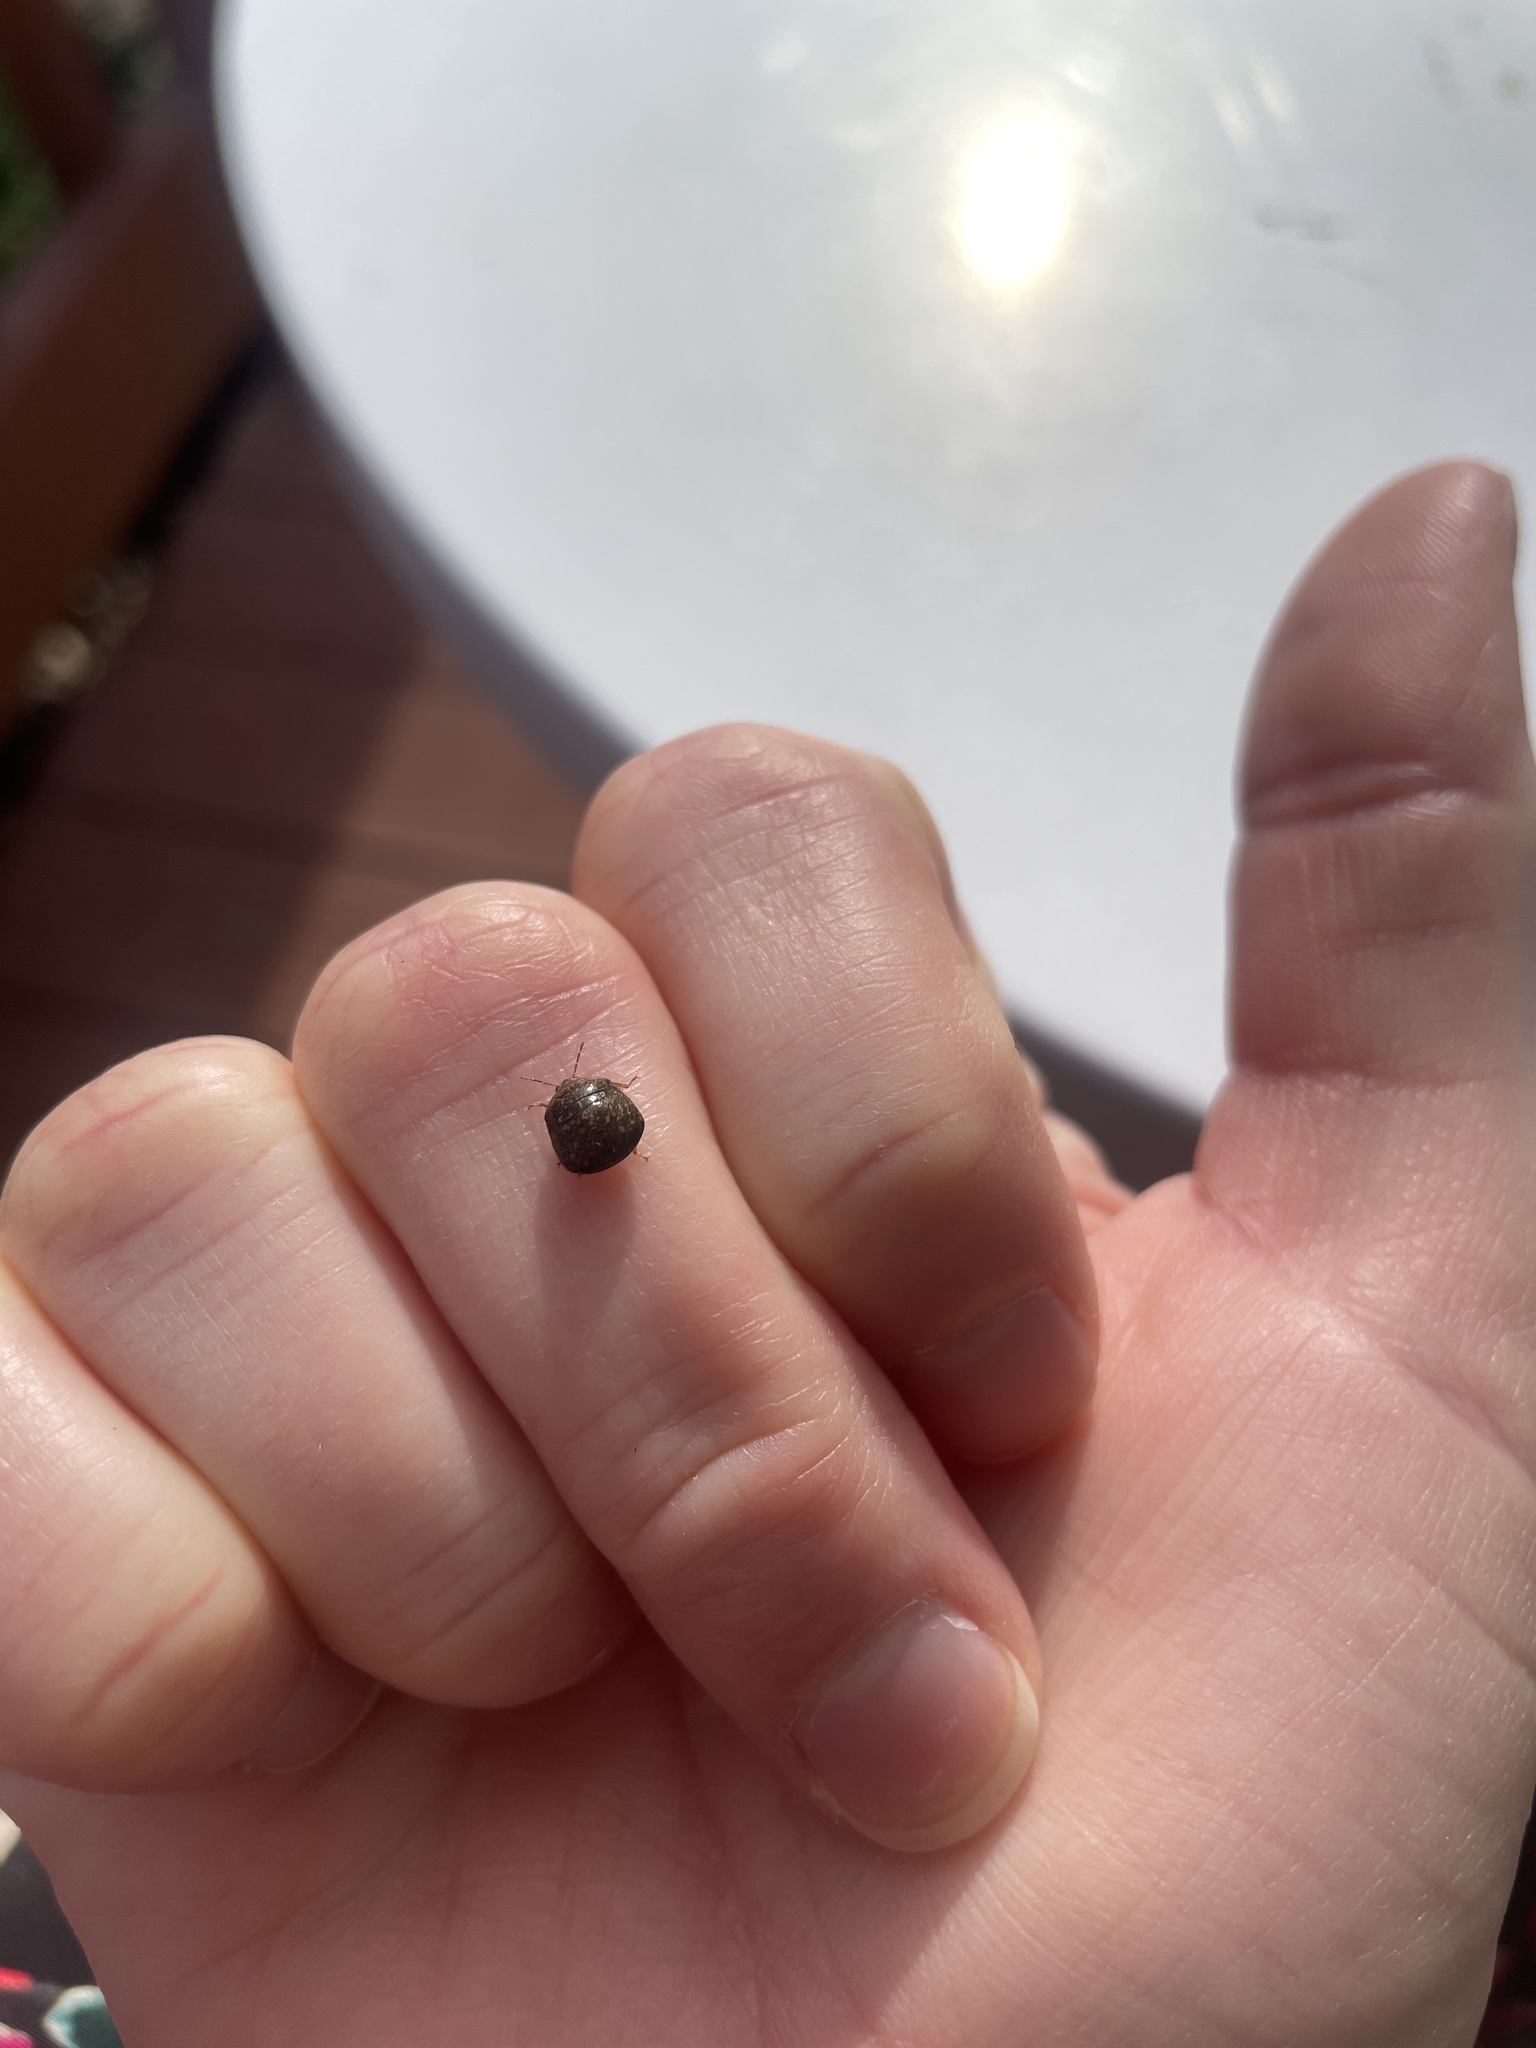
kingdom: Animalia
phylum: Arthropoda
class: Insecta
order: Hemiptera
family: Plataspidae
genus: Megacopta
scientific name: Megacopta cribraria
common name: Bean plataspid
